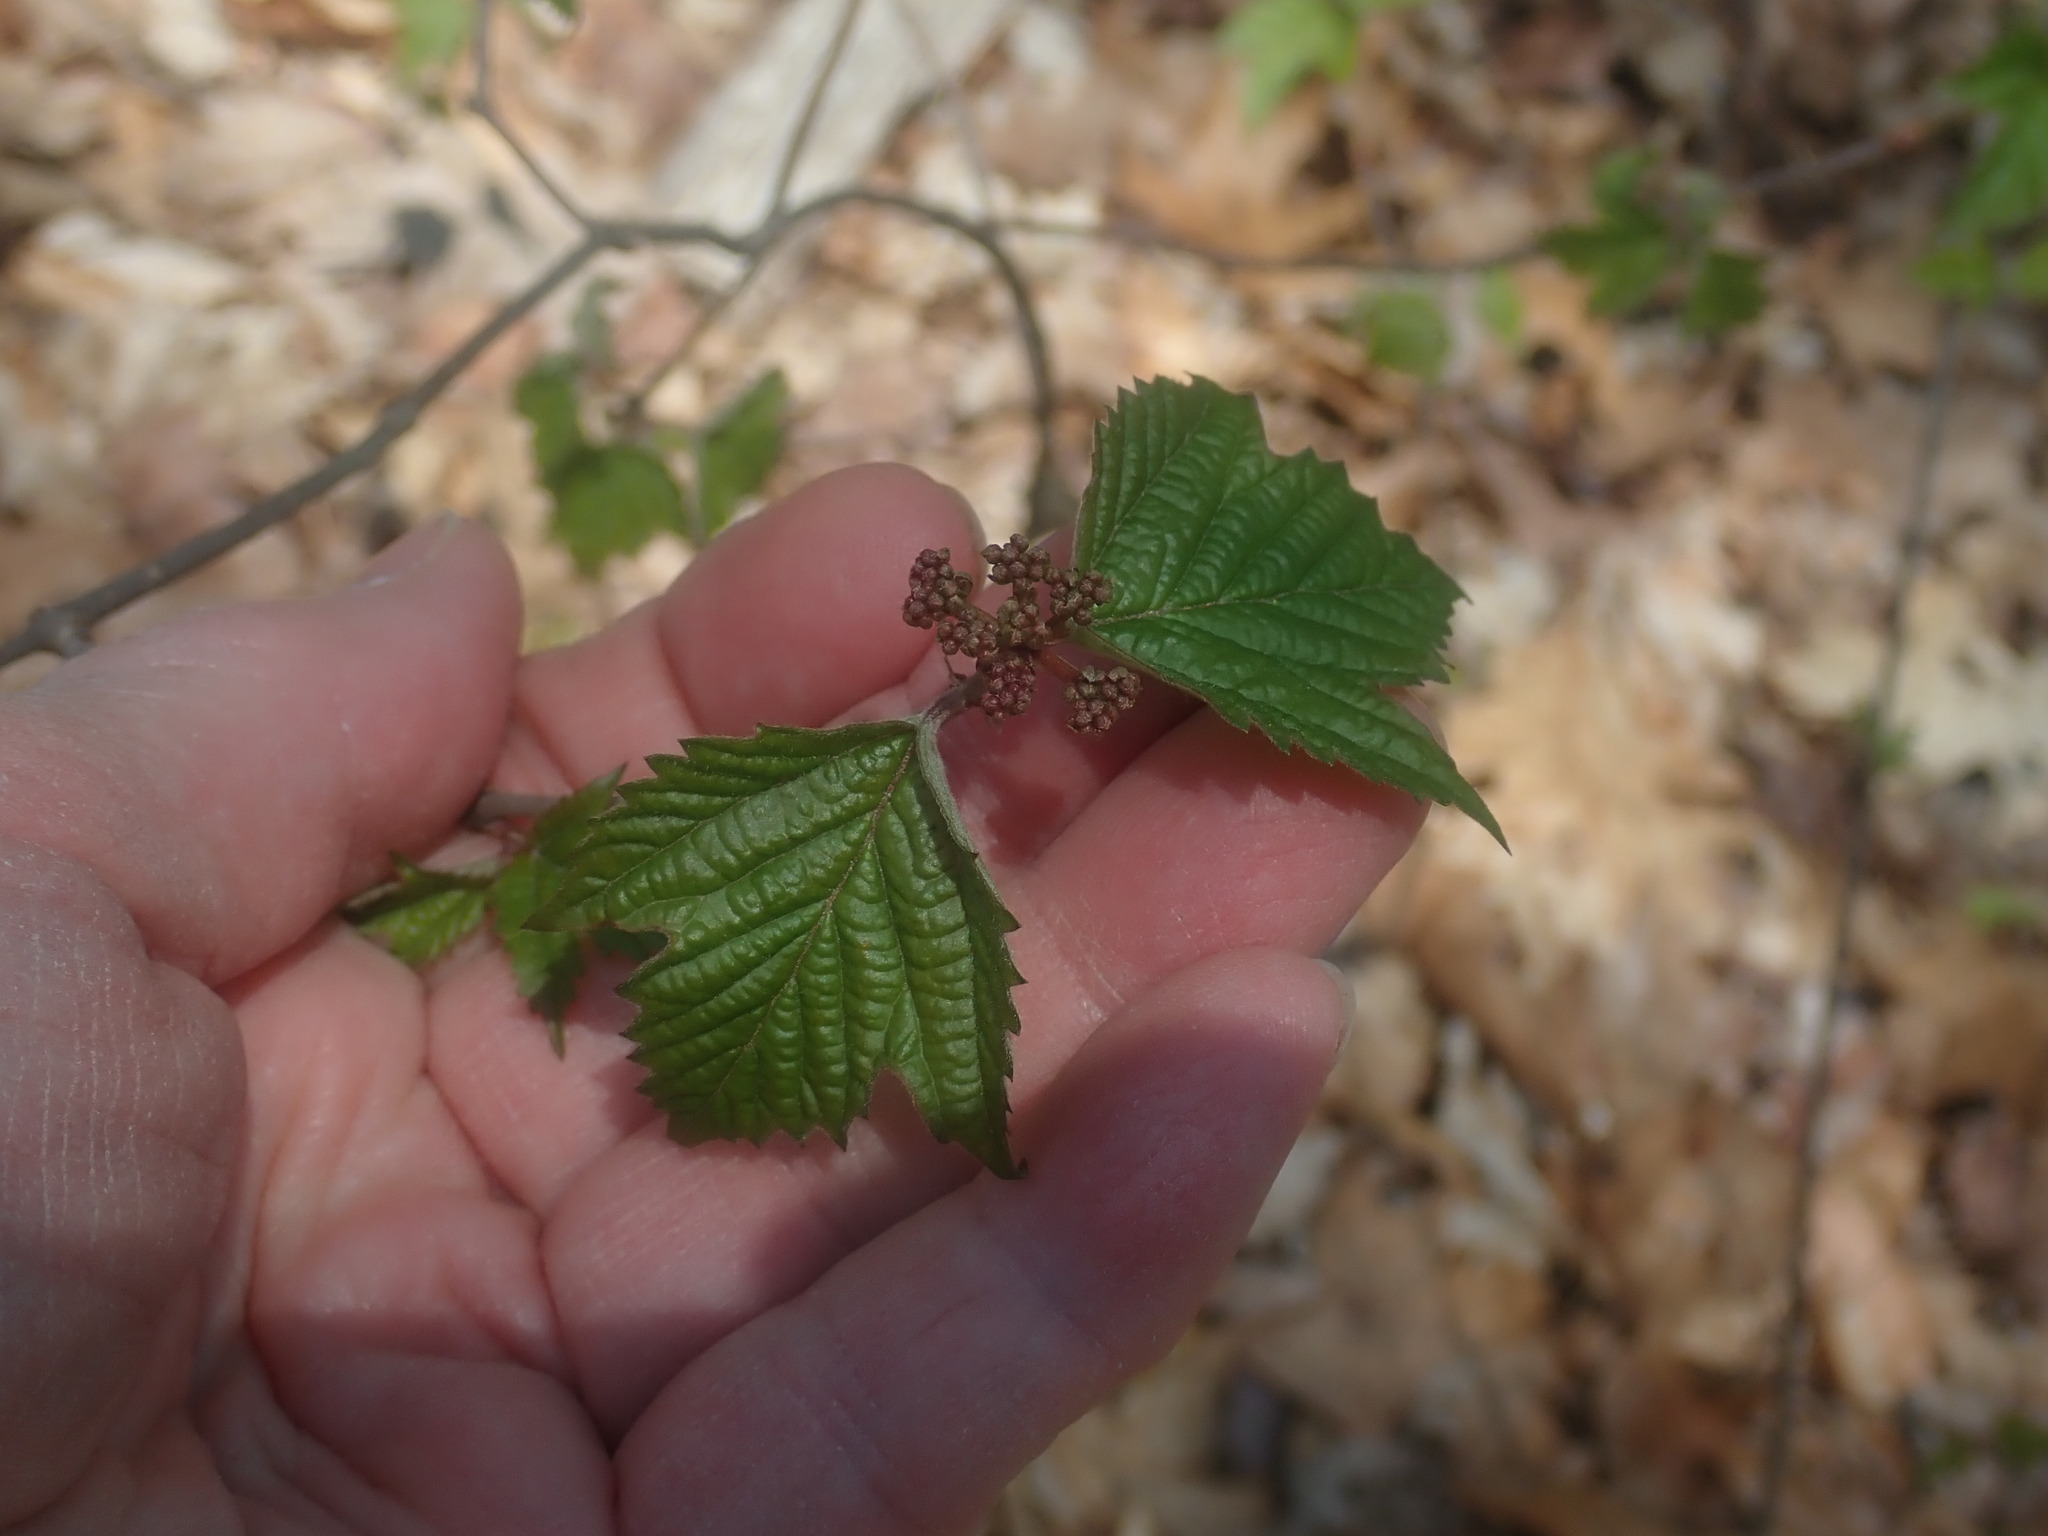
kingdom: Plantae
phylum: Tracheophyta
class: Magnoliopsida
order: Dipsacales
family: Viburnaceae
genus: Viburnum
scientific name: Viburnum acerifolium
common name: Dockmackie
